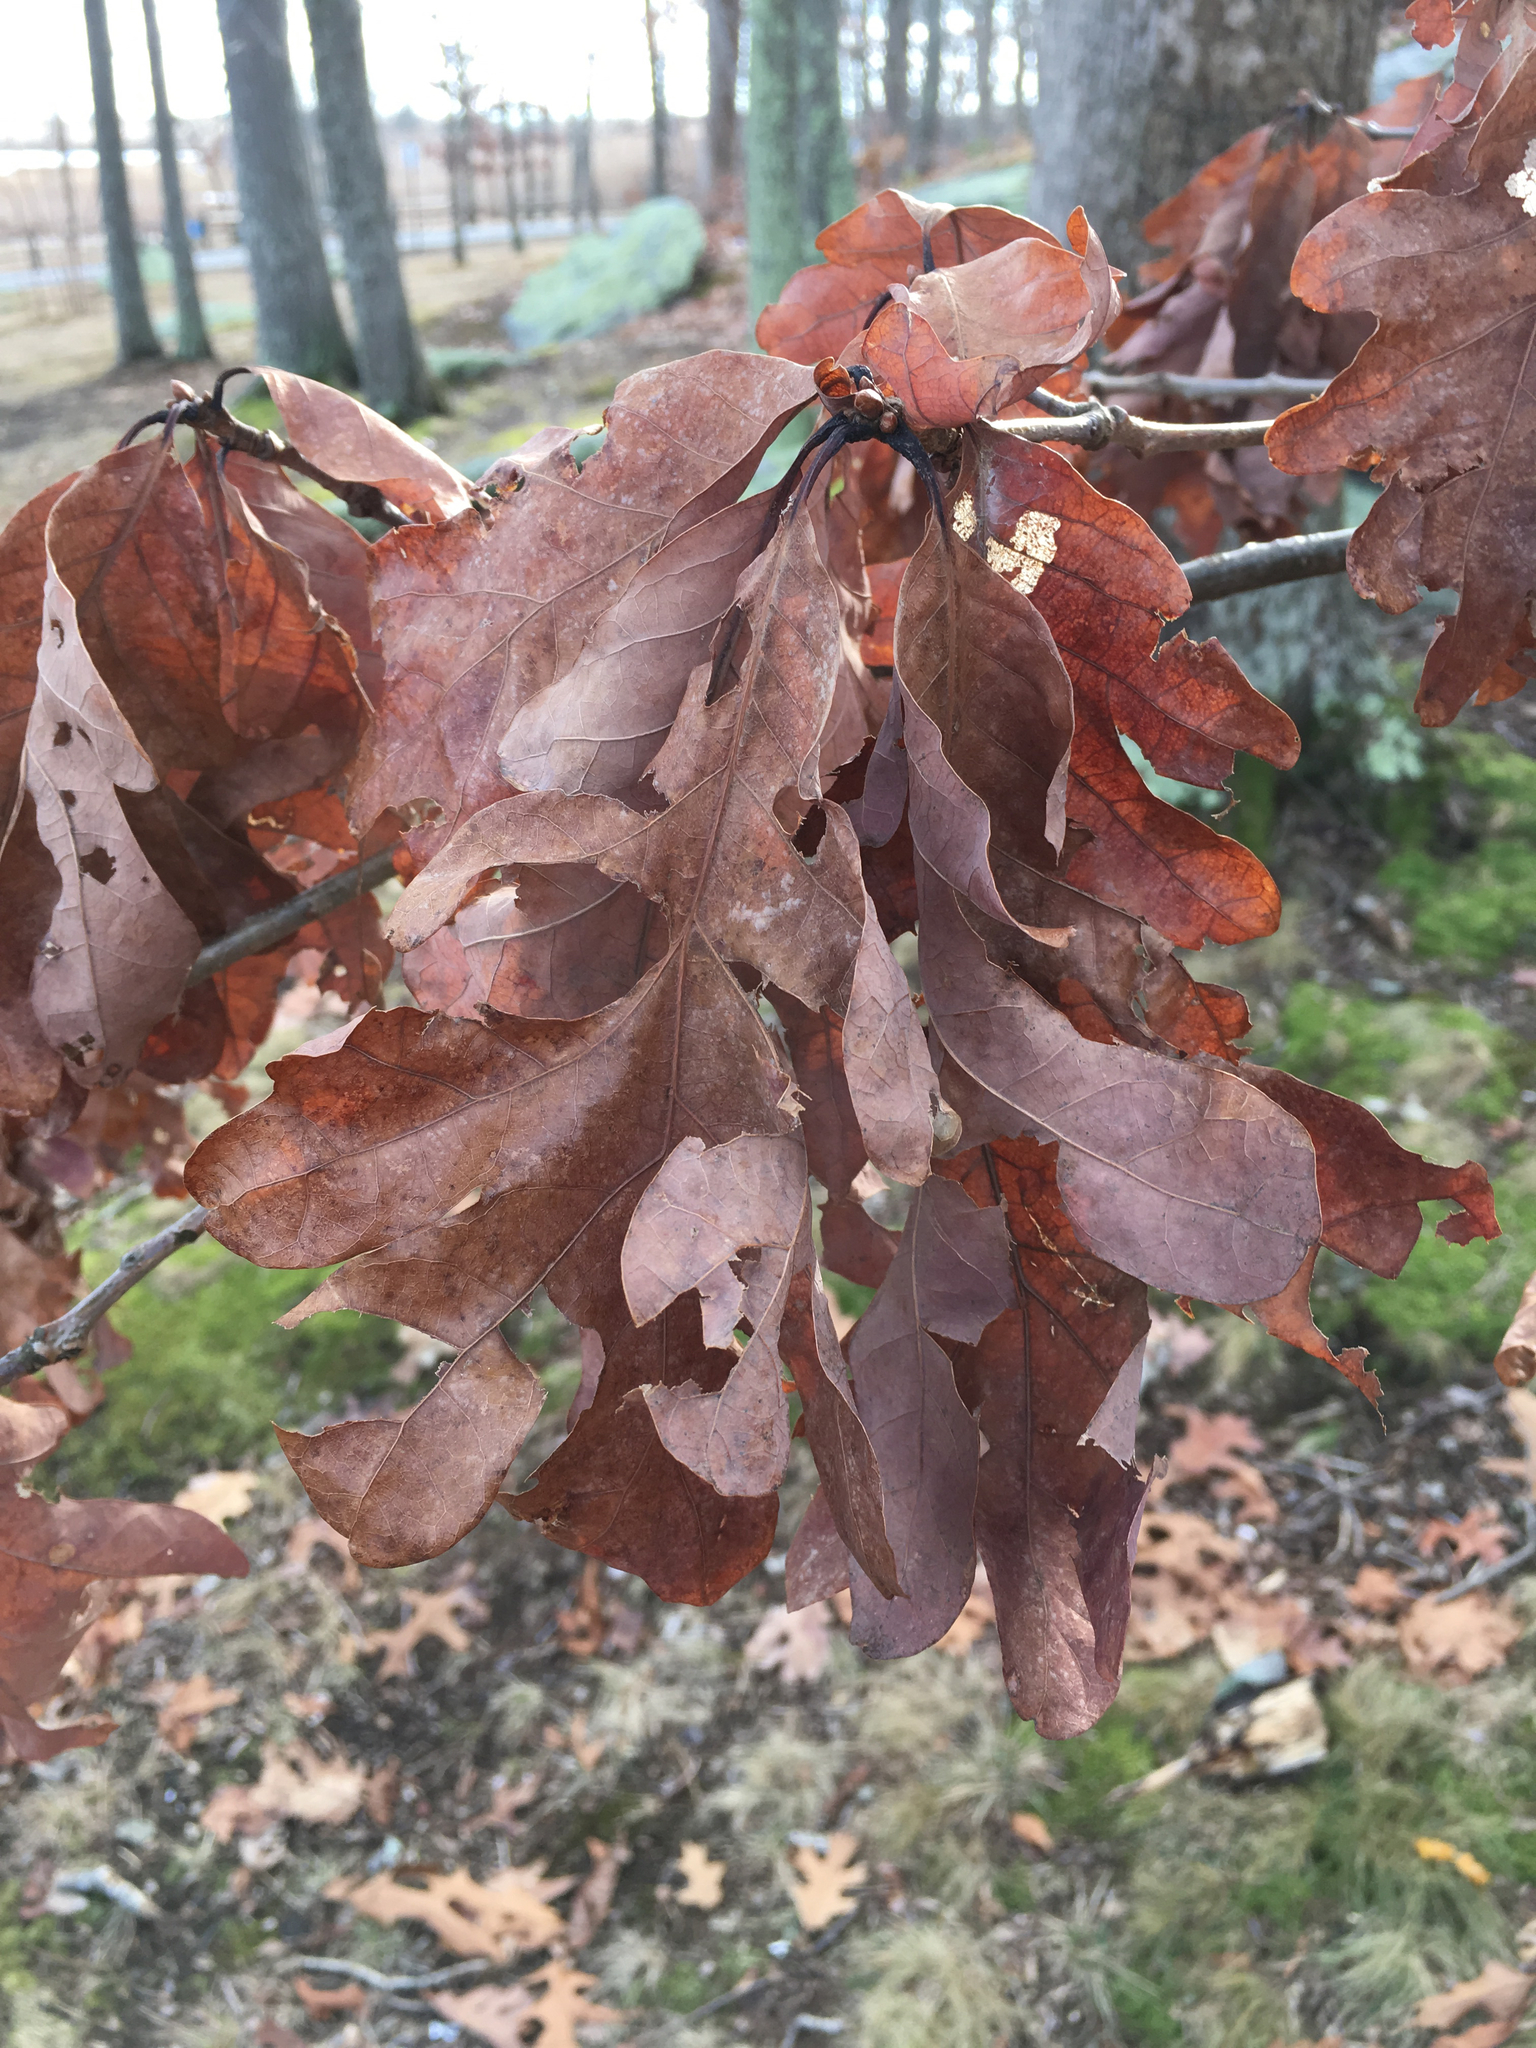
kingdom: Plantae
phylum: Tracheophyta
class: Magnoliopsida
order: Fagales
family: Fagaceae
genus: Quercus
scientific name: Quercus alba
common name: White oak
